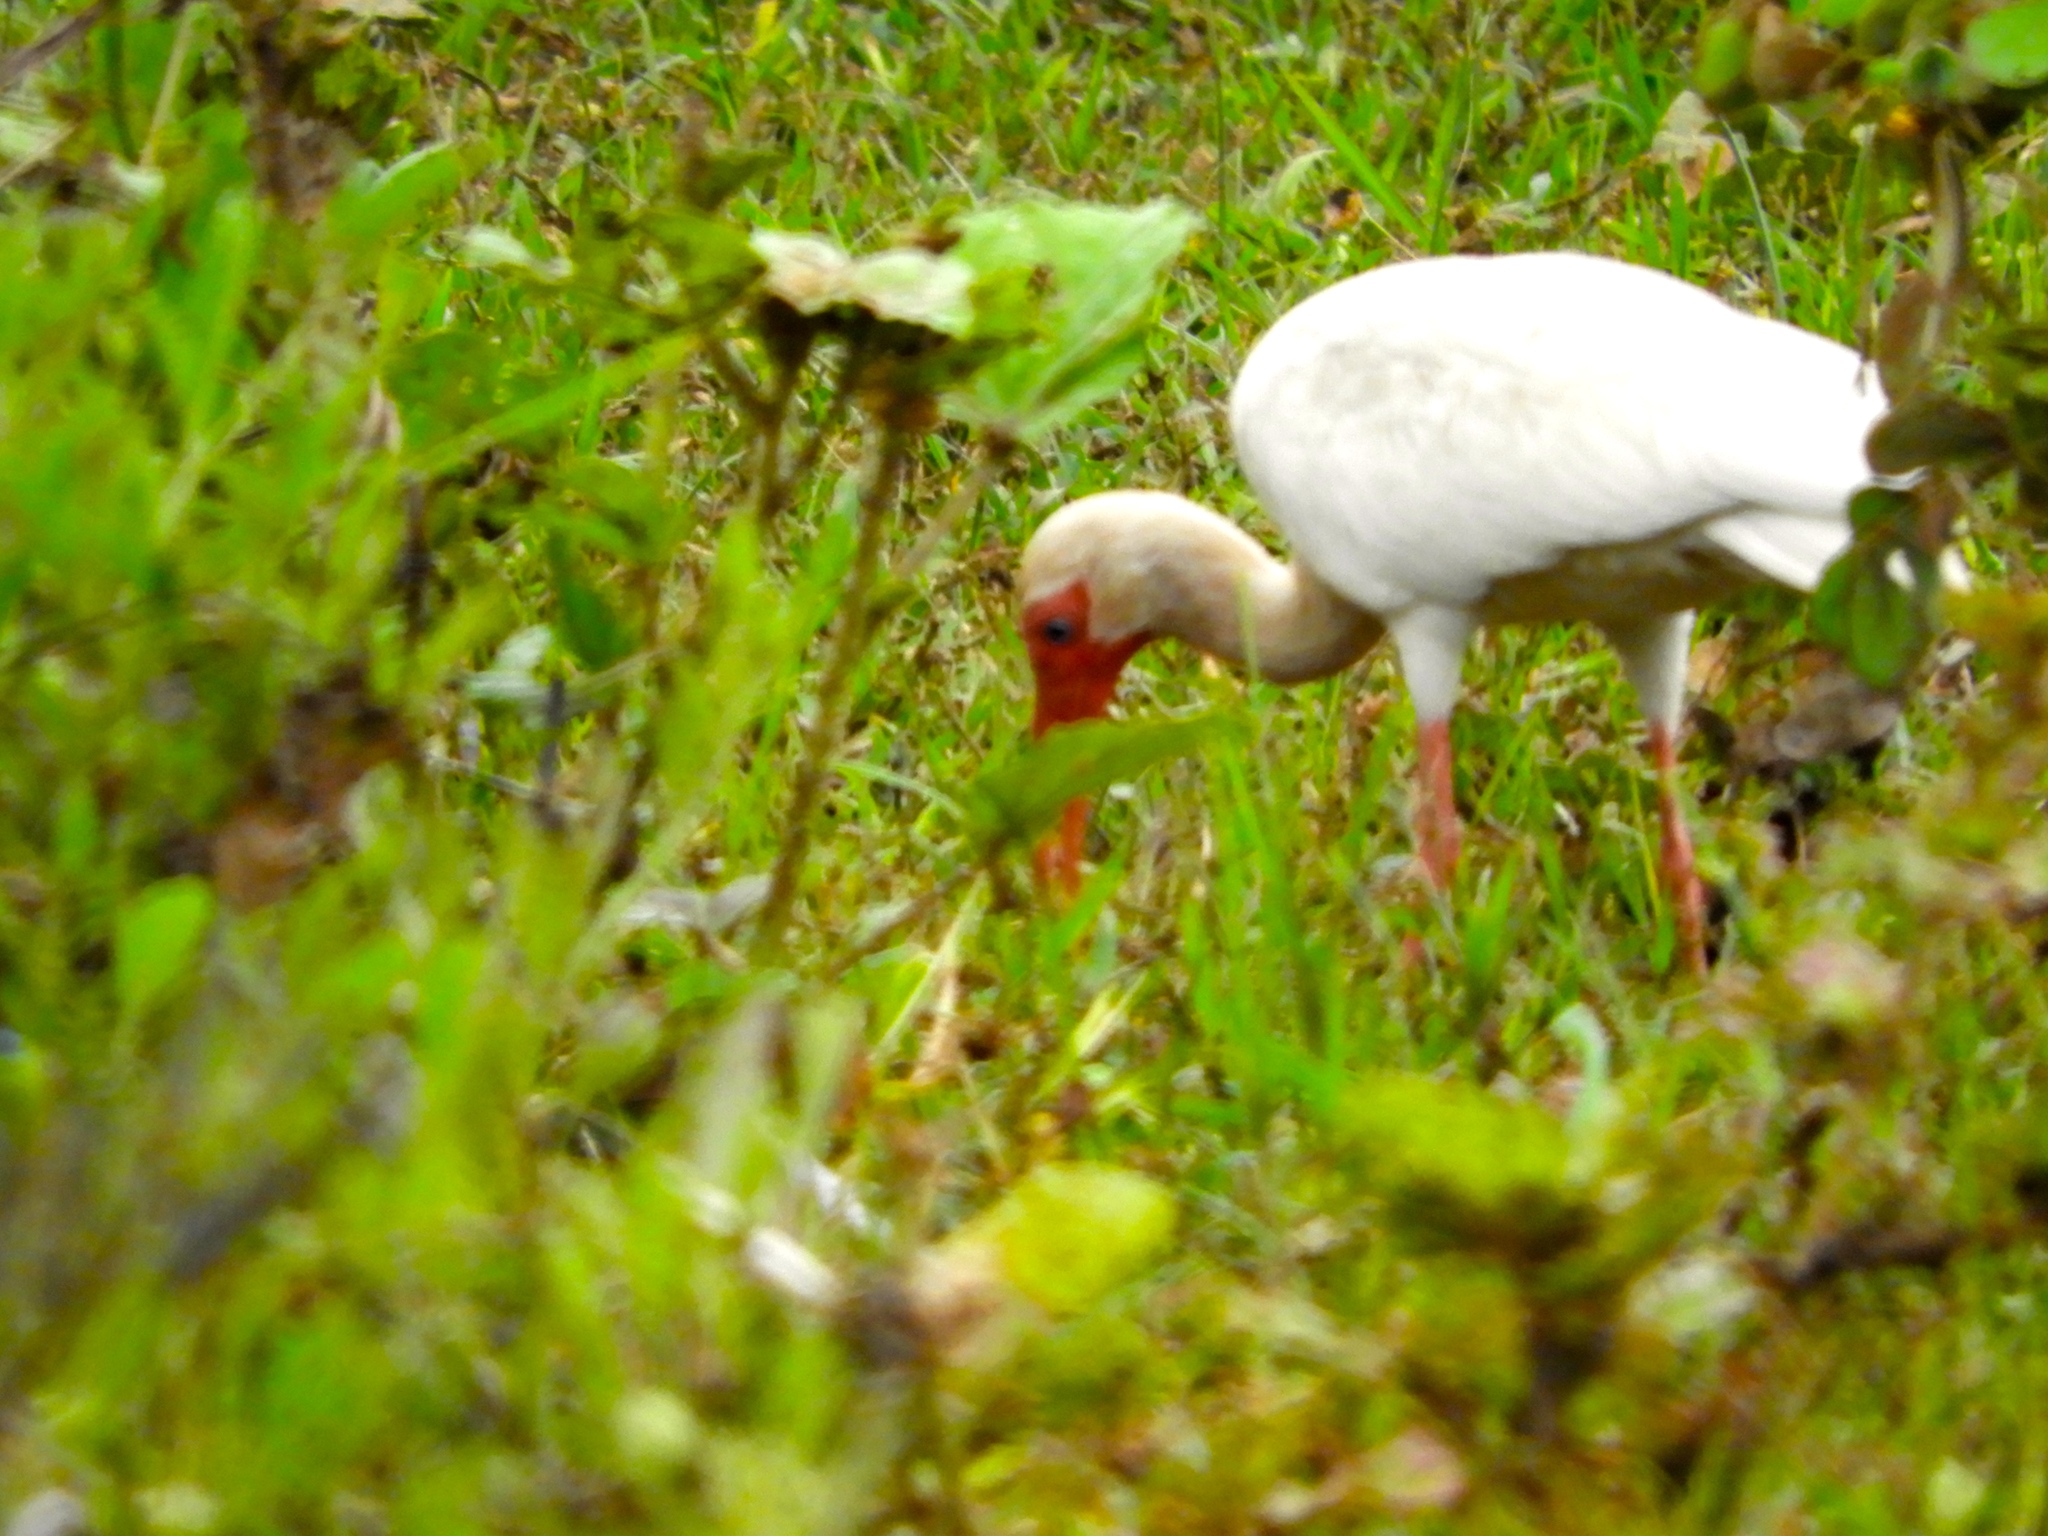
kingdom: Animalia
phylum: Chordata
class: Aves
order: Pelecaniformes
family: Threskiornithidae
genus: Eudocimus
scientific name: Eudocimus albus
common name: White ibis
